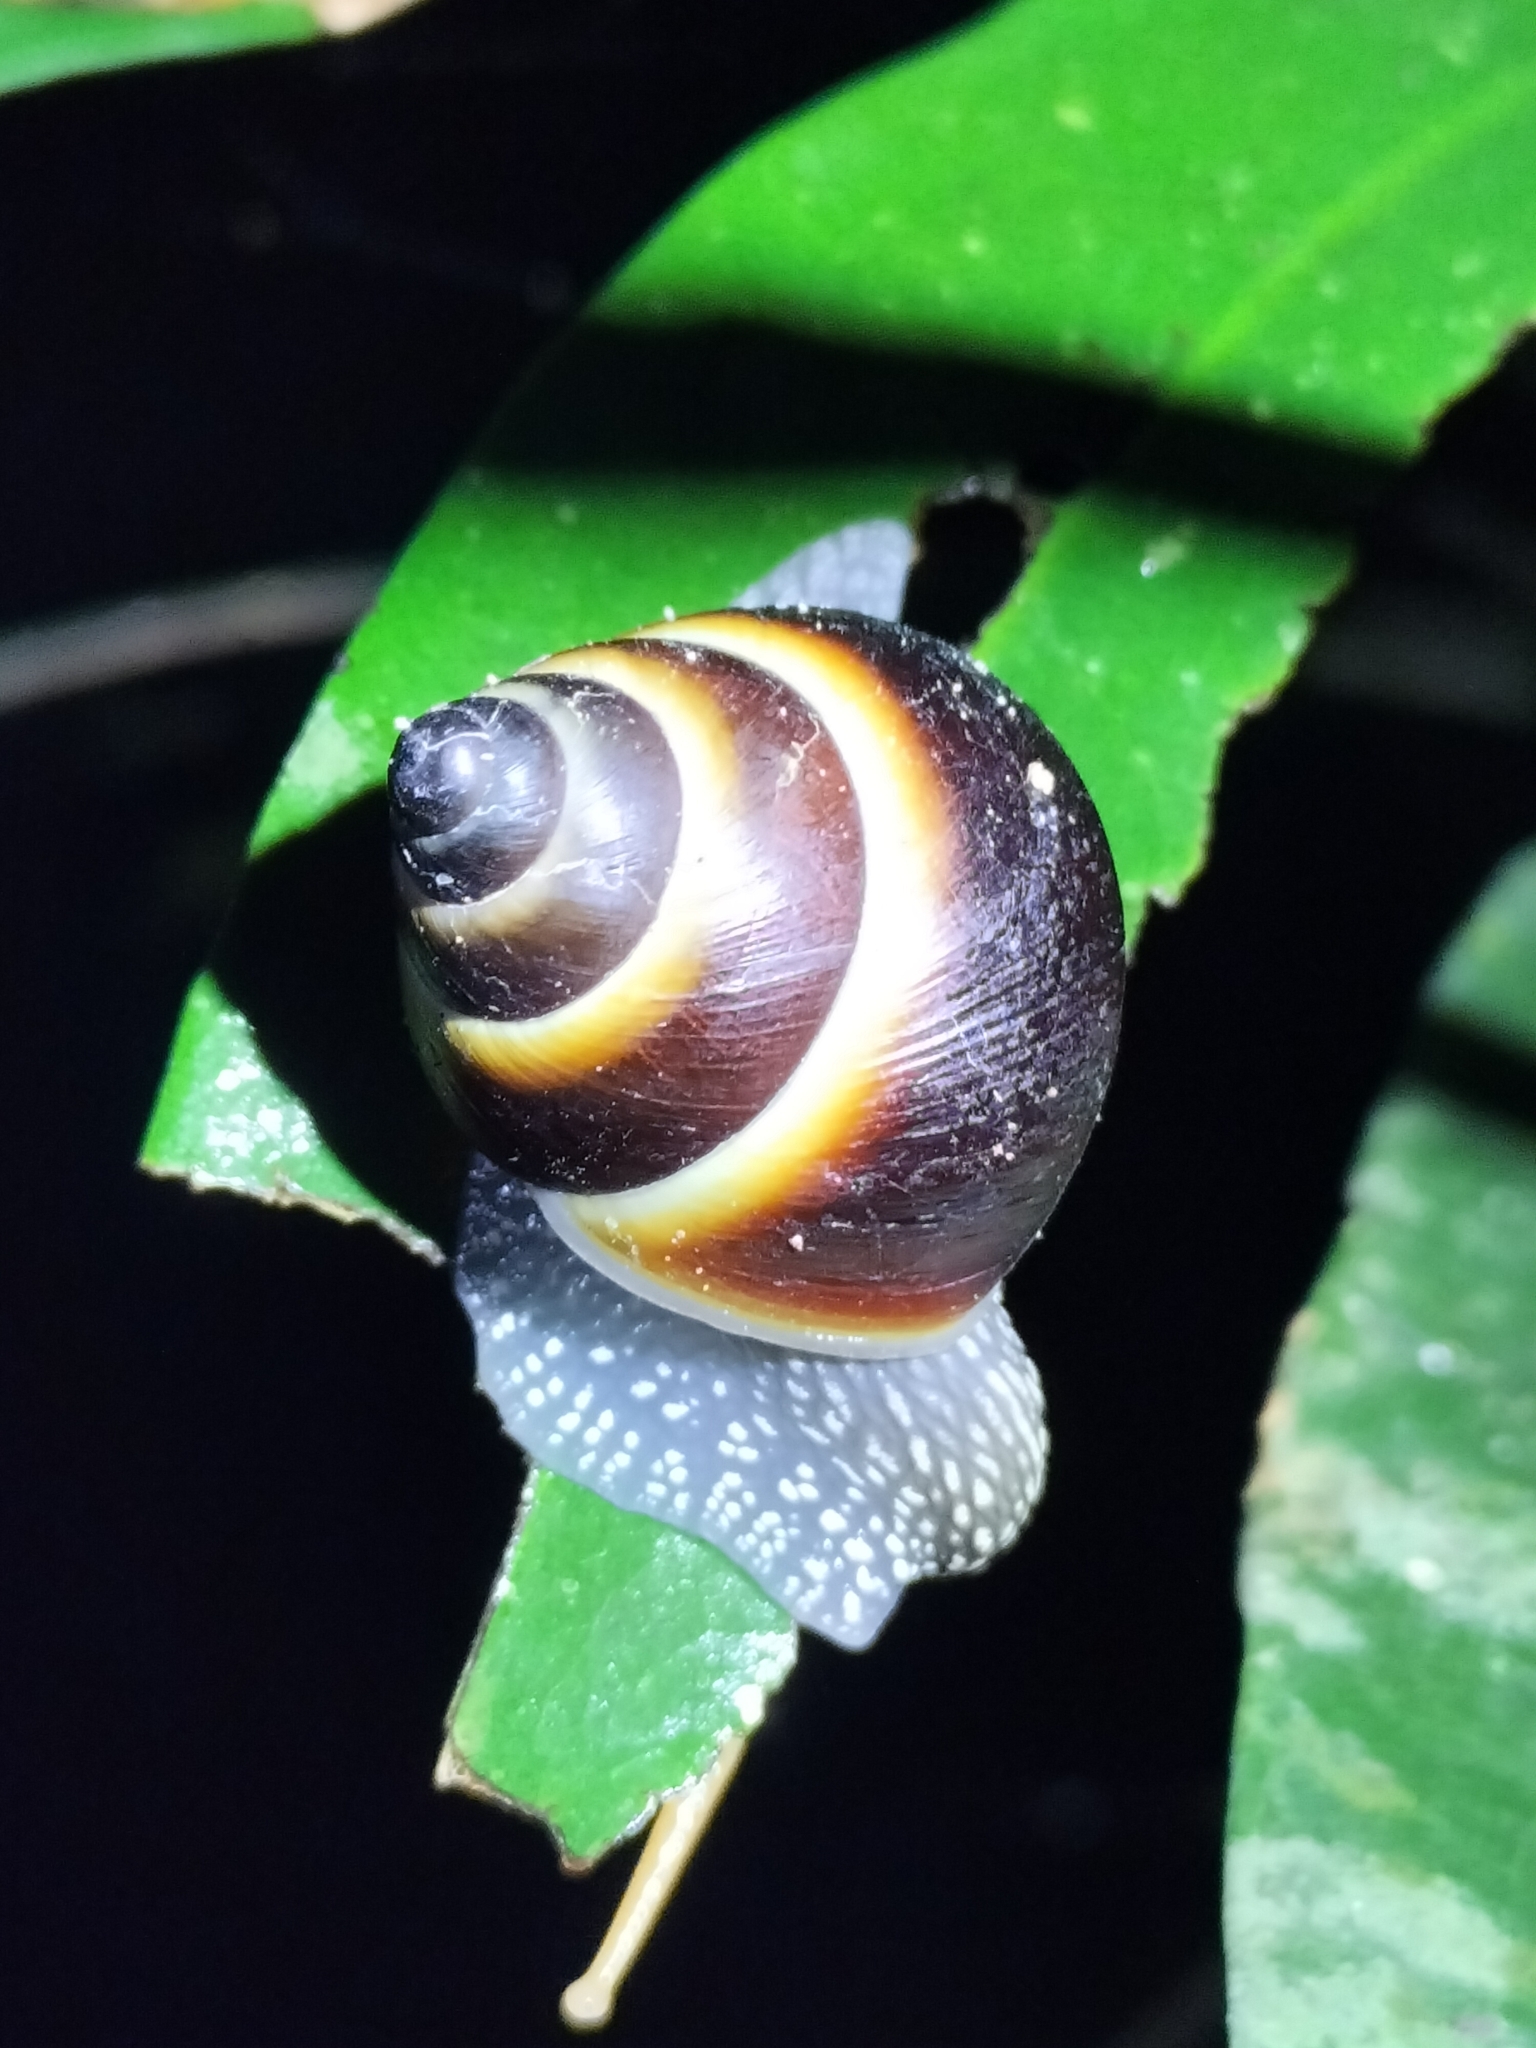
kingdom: Animalia
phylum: Mollusca
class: Gastropoda
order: Stylommatophora
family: Camaenidae
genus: Noctepuna
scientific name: Noctepuna mayana
